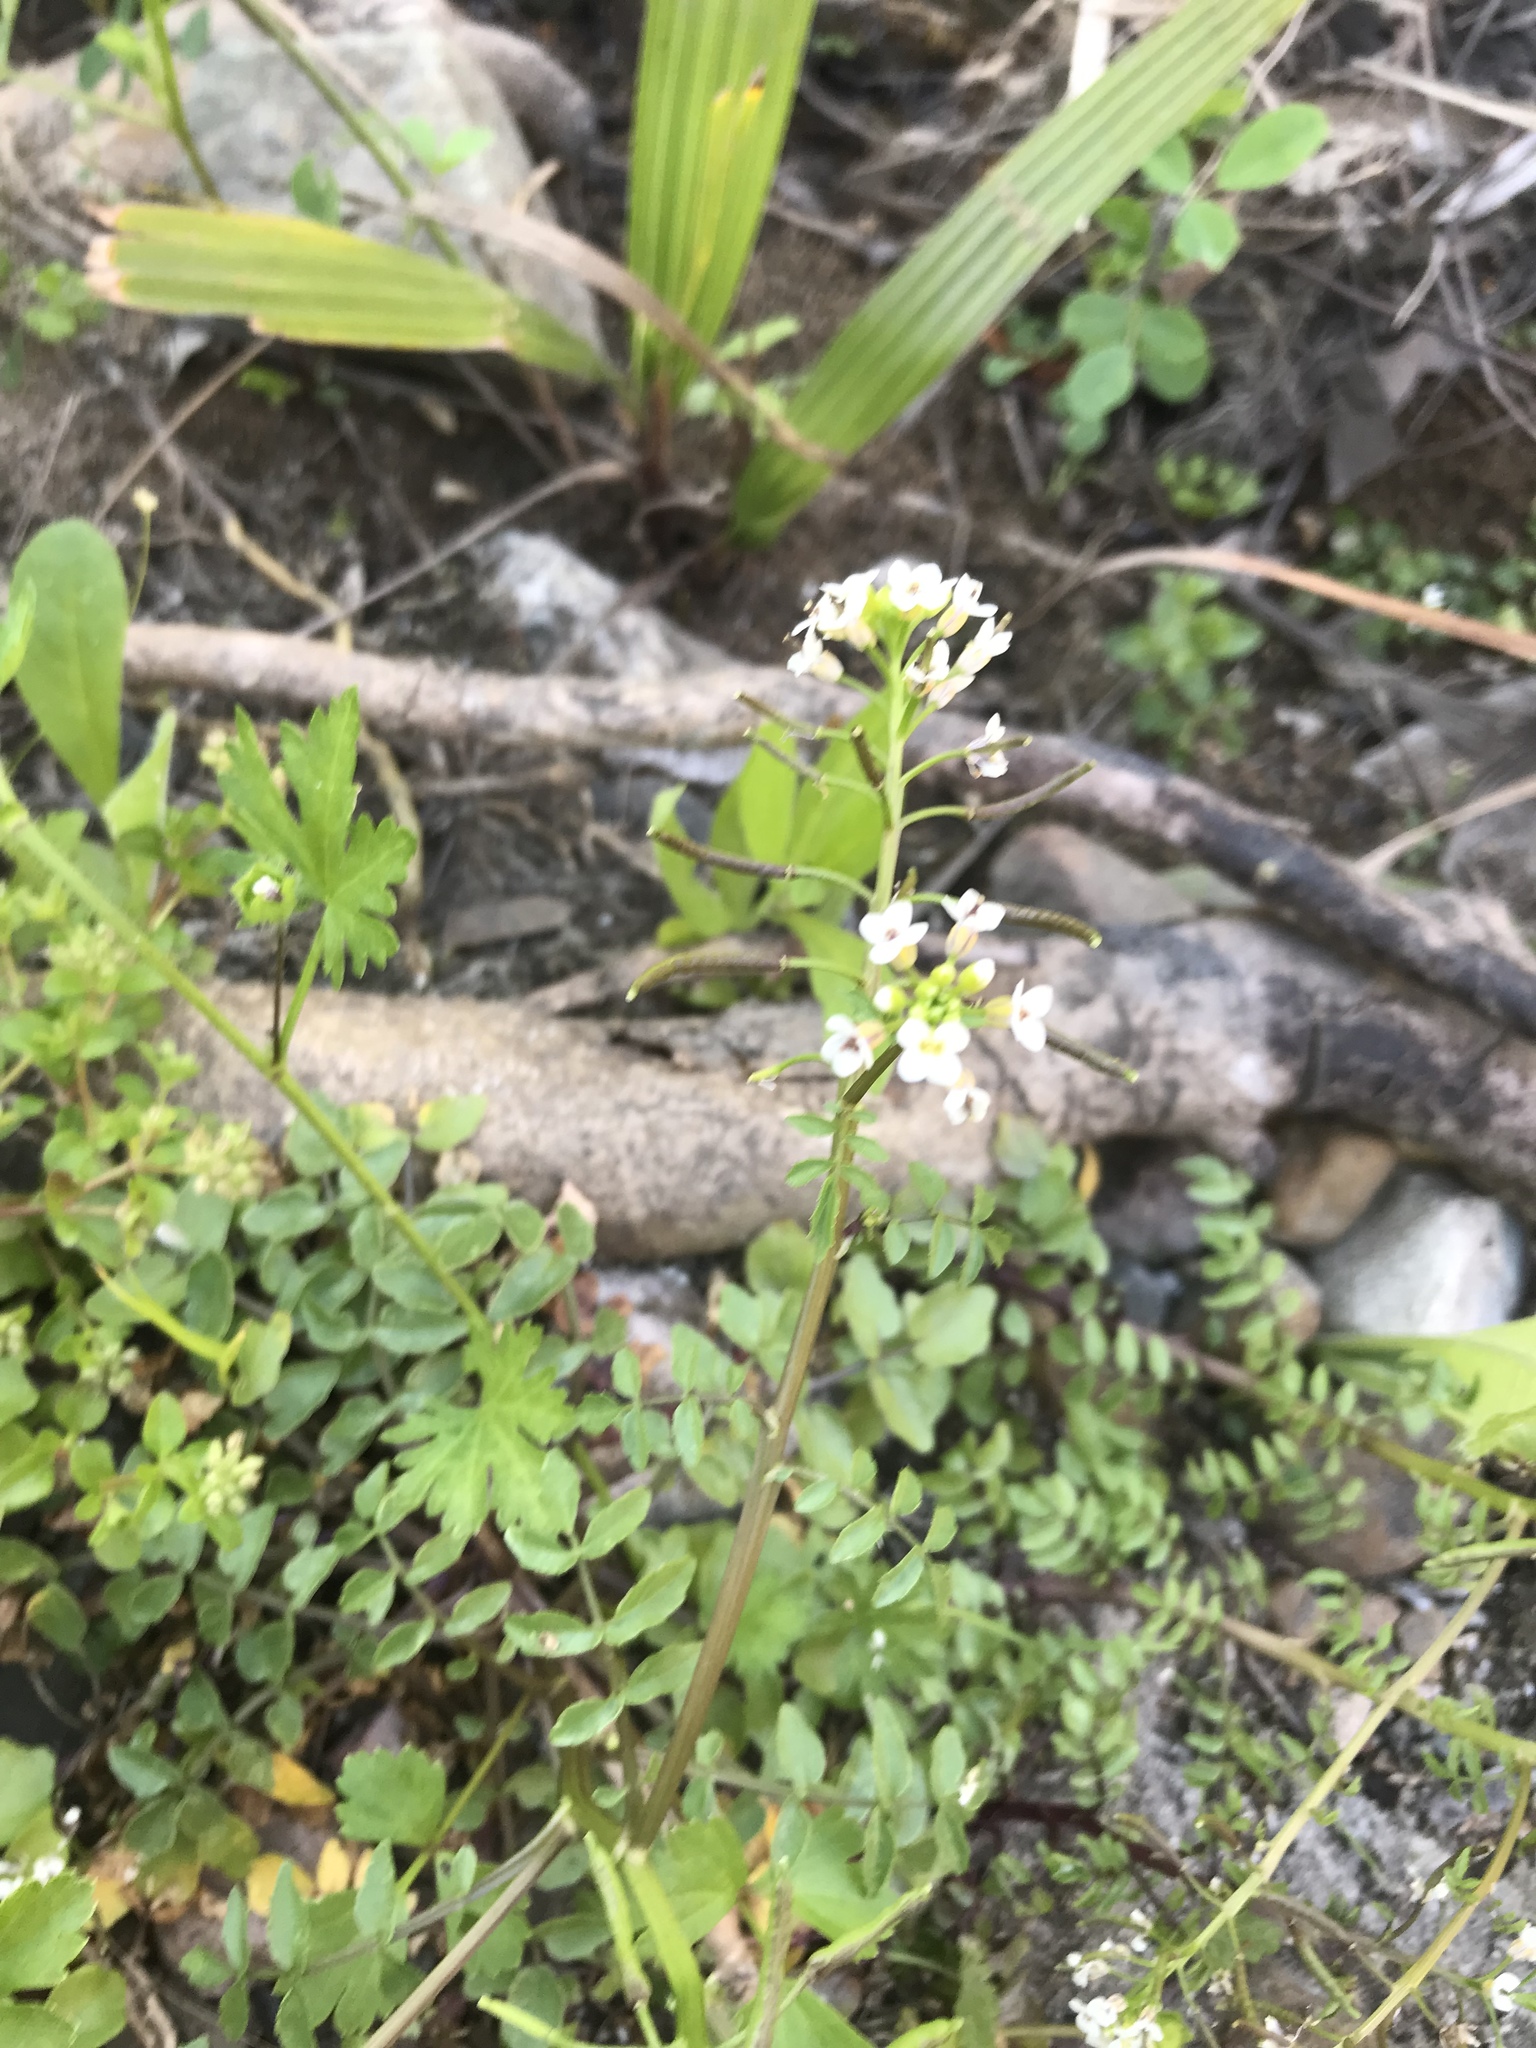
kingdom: Plantae
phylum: Tracheophyta
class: Magnoliopsida
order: Brassicales
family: Brassicaceae
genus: Nasturtium
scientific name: Nasturtium officinale
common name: Watercress
